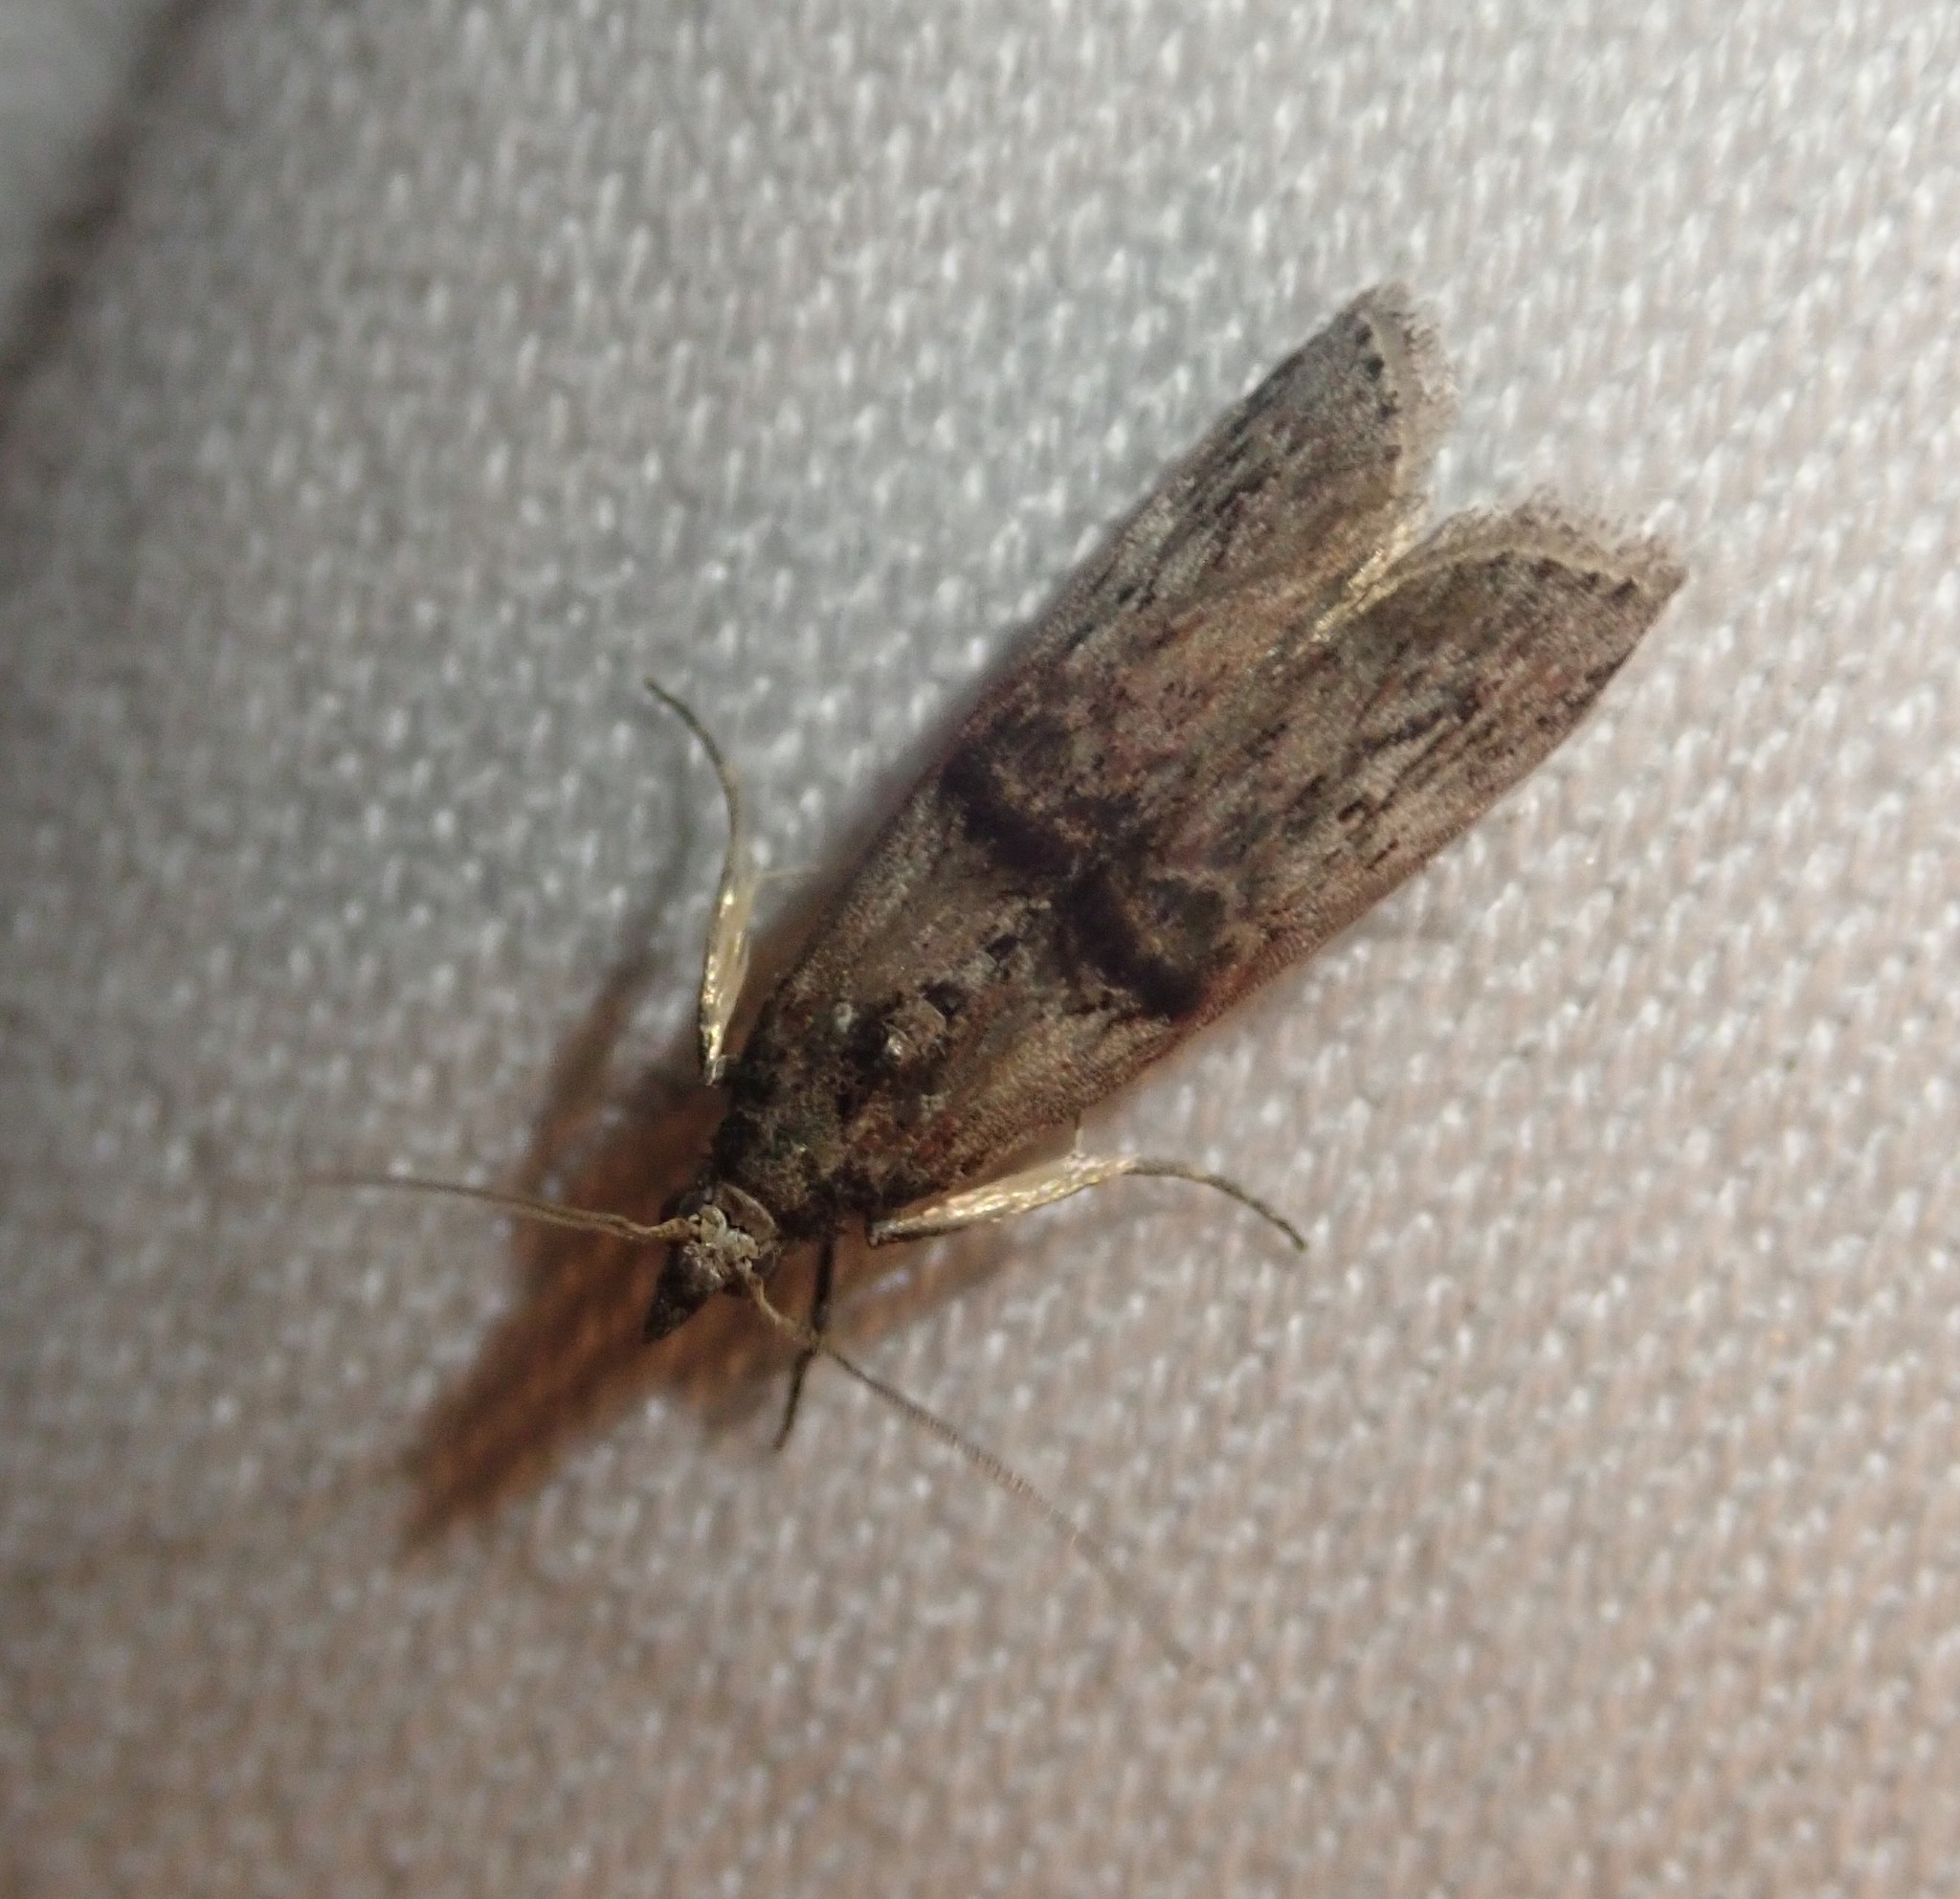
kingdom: Animalia
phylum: Arthropoda
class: Insecta
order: Lepidoptera
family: Pyralidae
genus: Nephopterix
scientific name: Nephopterix angustella
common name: Spindle knot-horn
